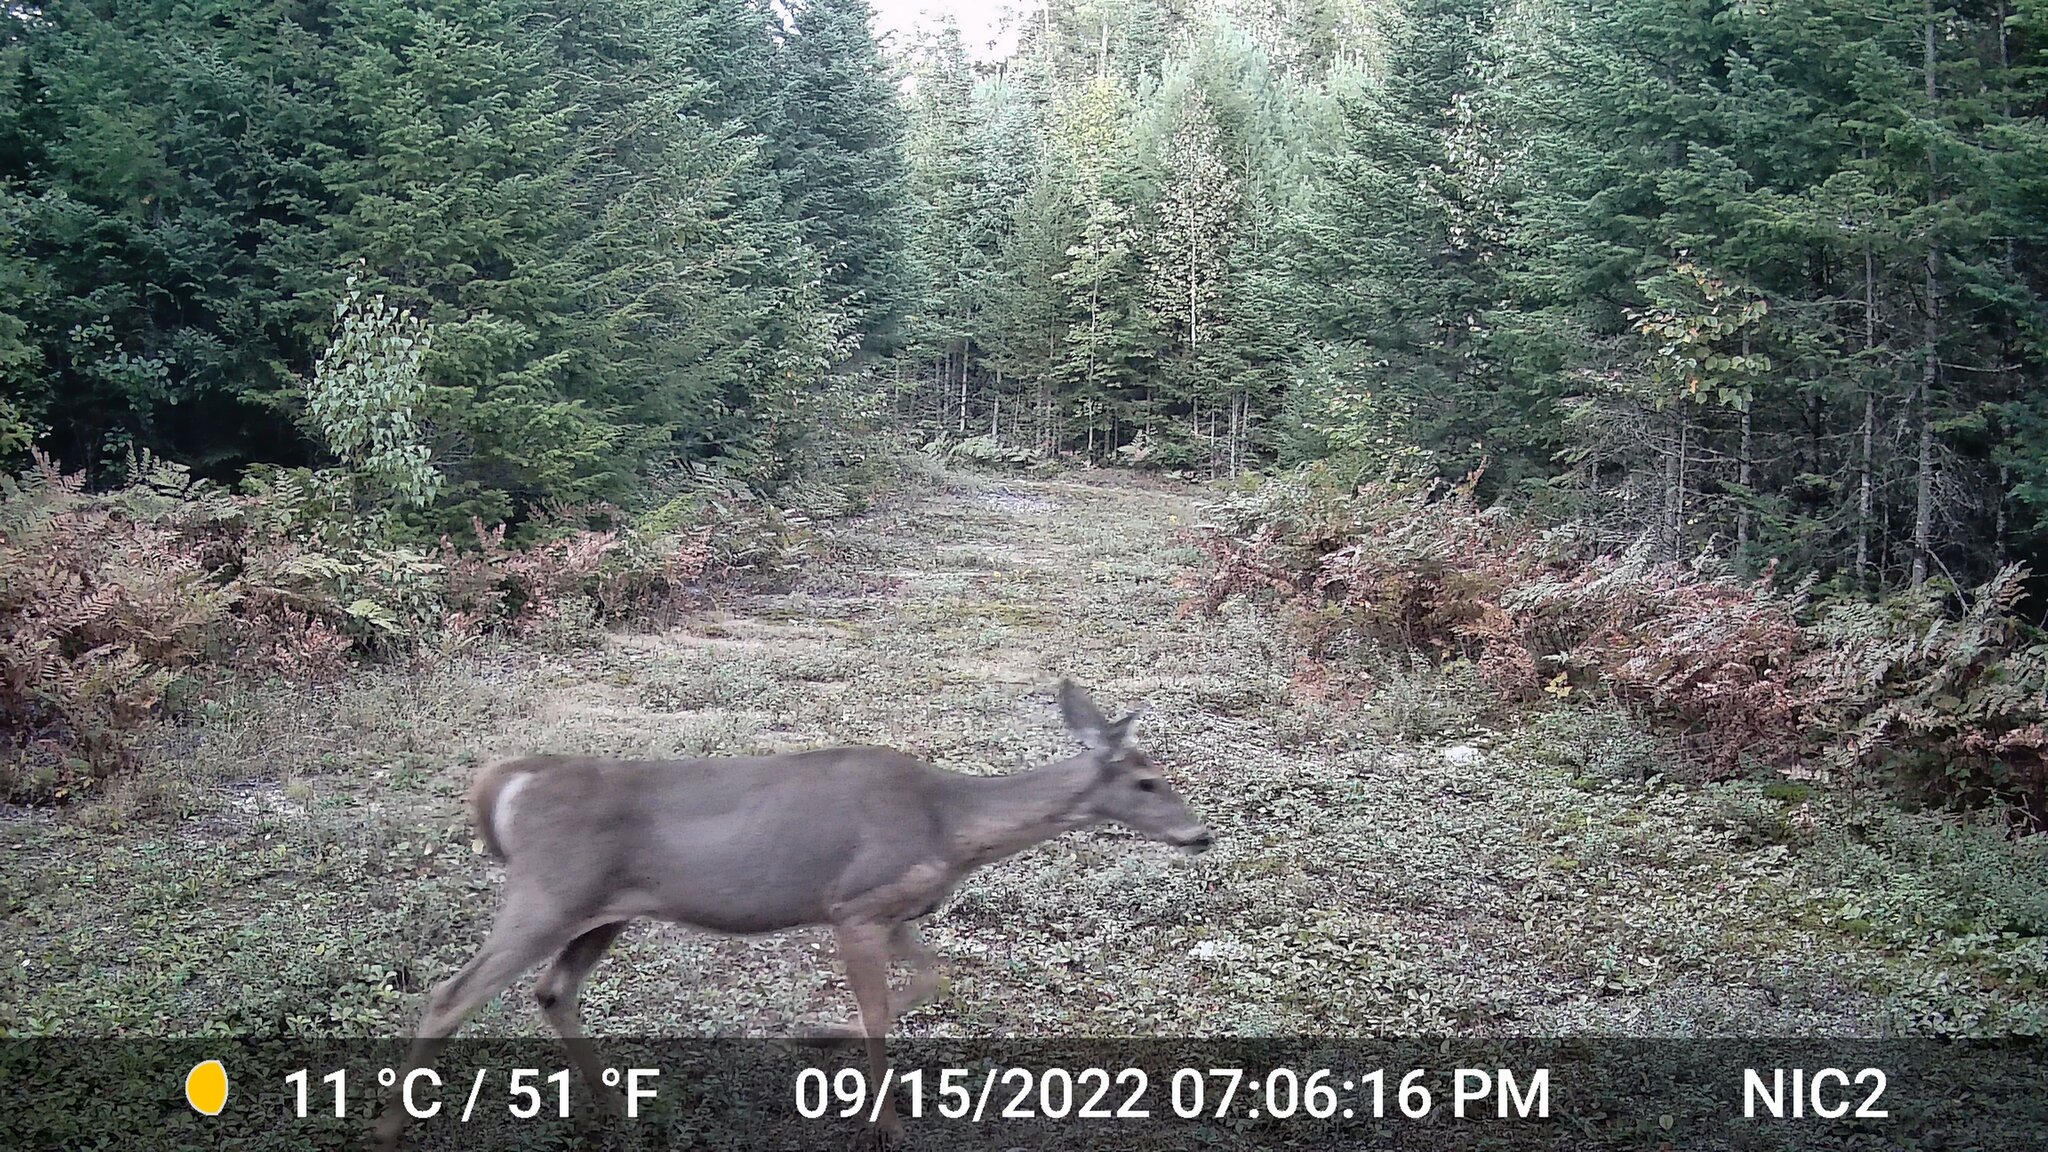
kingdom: Animalia
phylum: Chordata
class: Mammalia
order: Artiodactyla
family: Cervidae
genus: Odocoileus
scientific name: Odocoileus virginianus
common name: White-tailed deer
